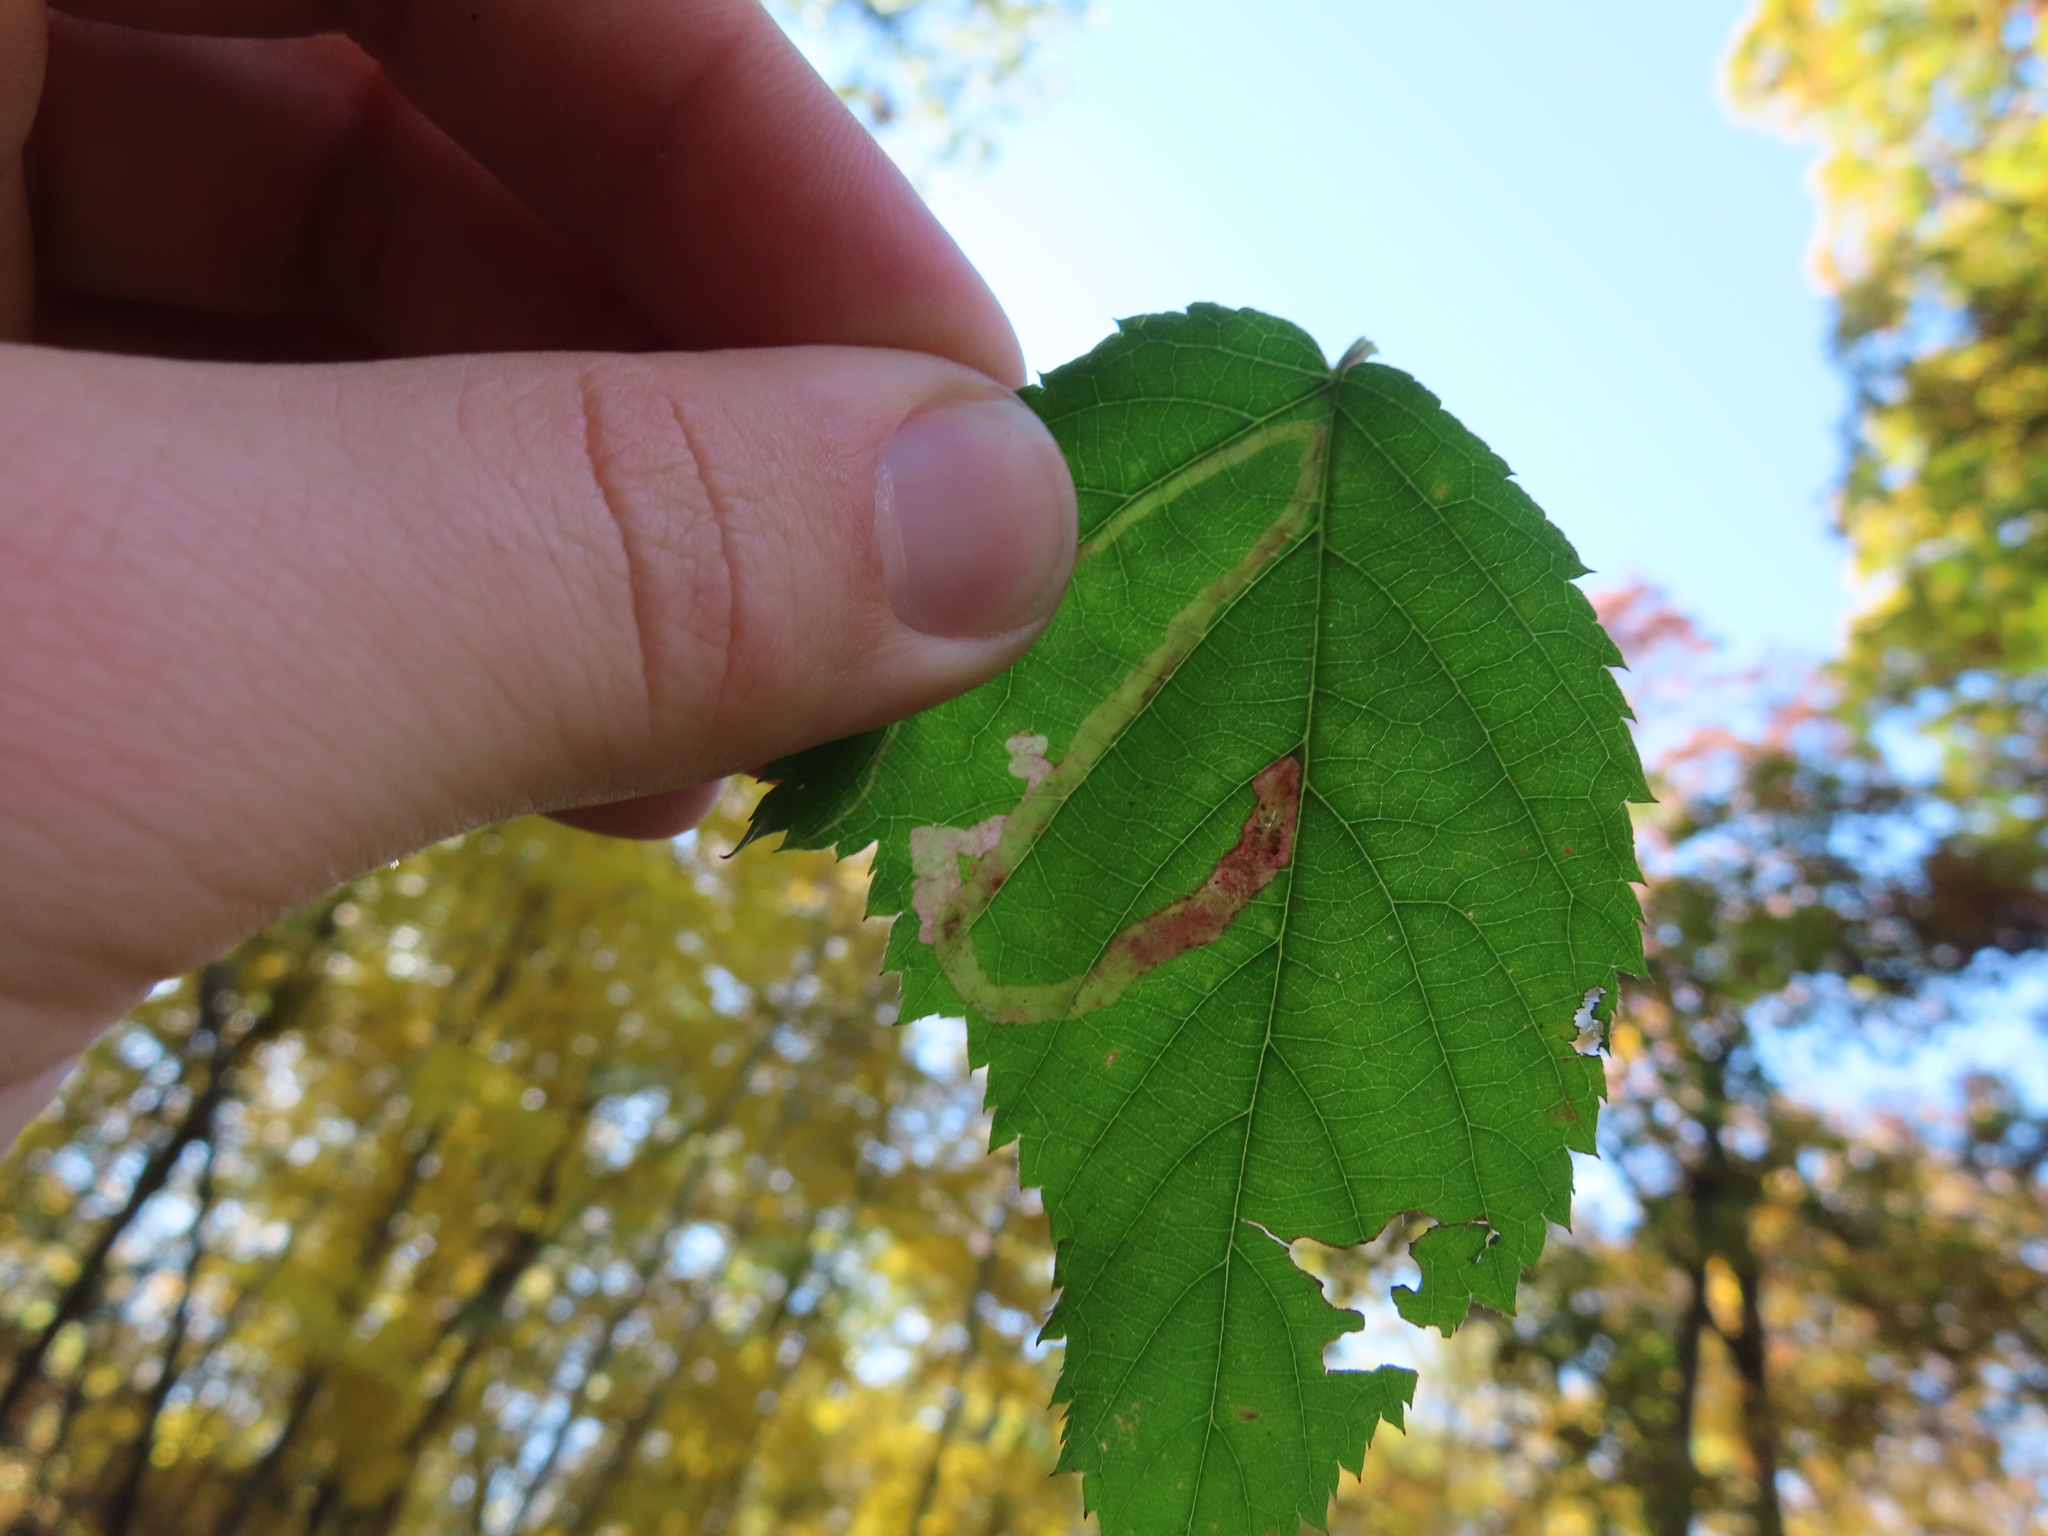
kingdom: Animalia
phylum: Arthropoda
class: Insecta
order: Diptera
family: Agromyzidae
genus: Agromyza
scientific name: Agromyza vockerothi
